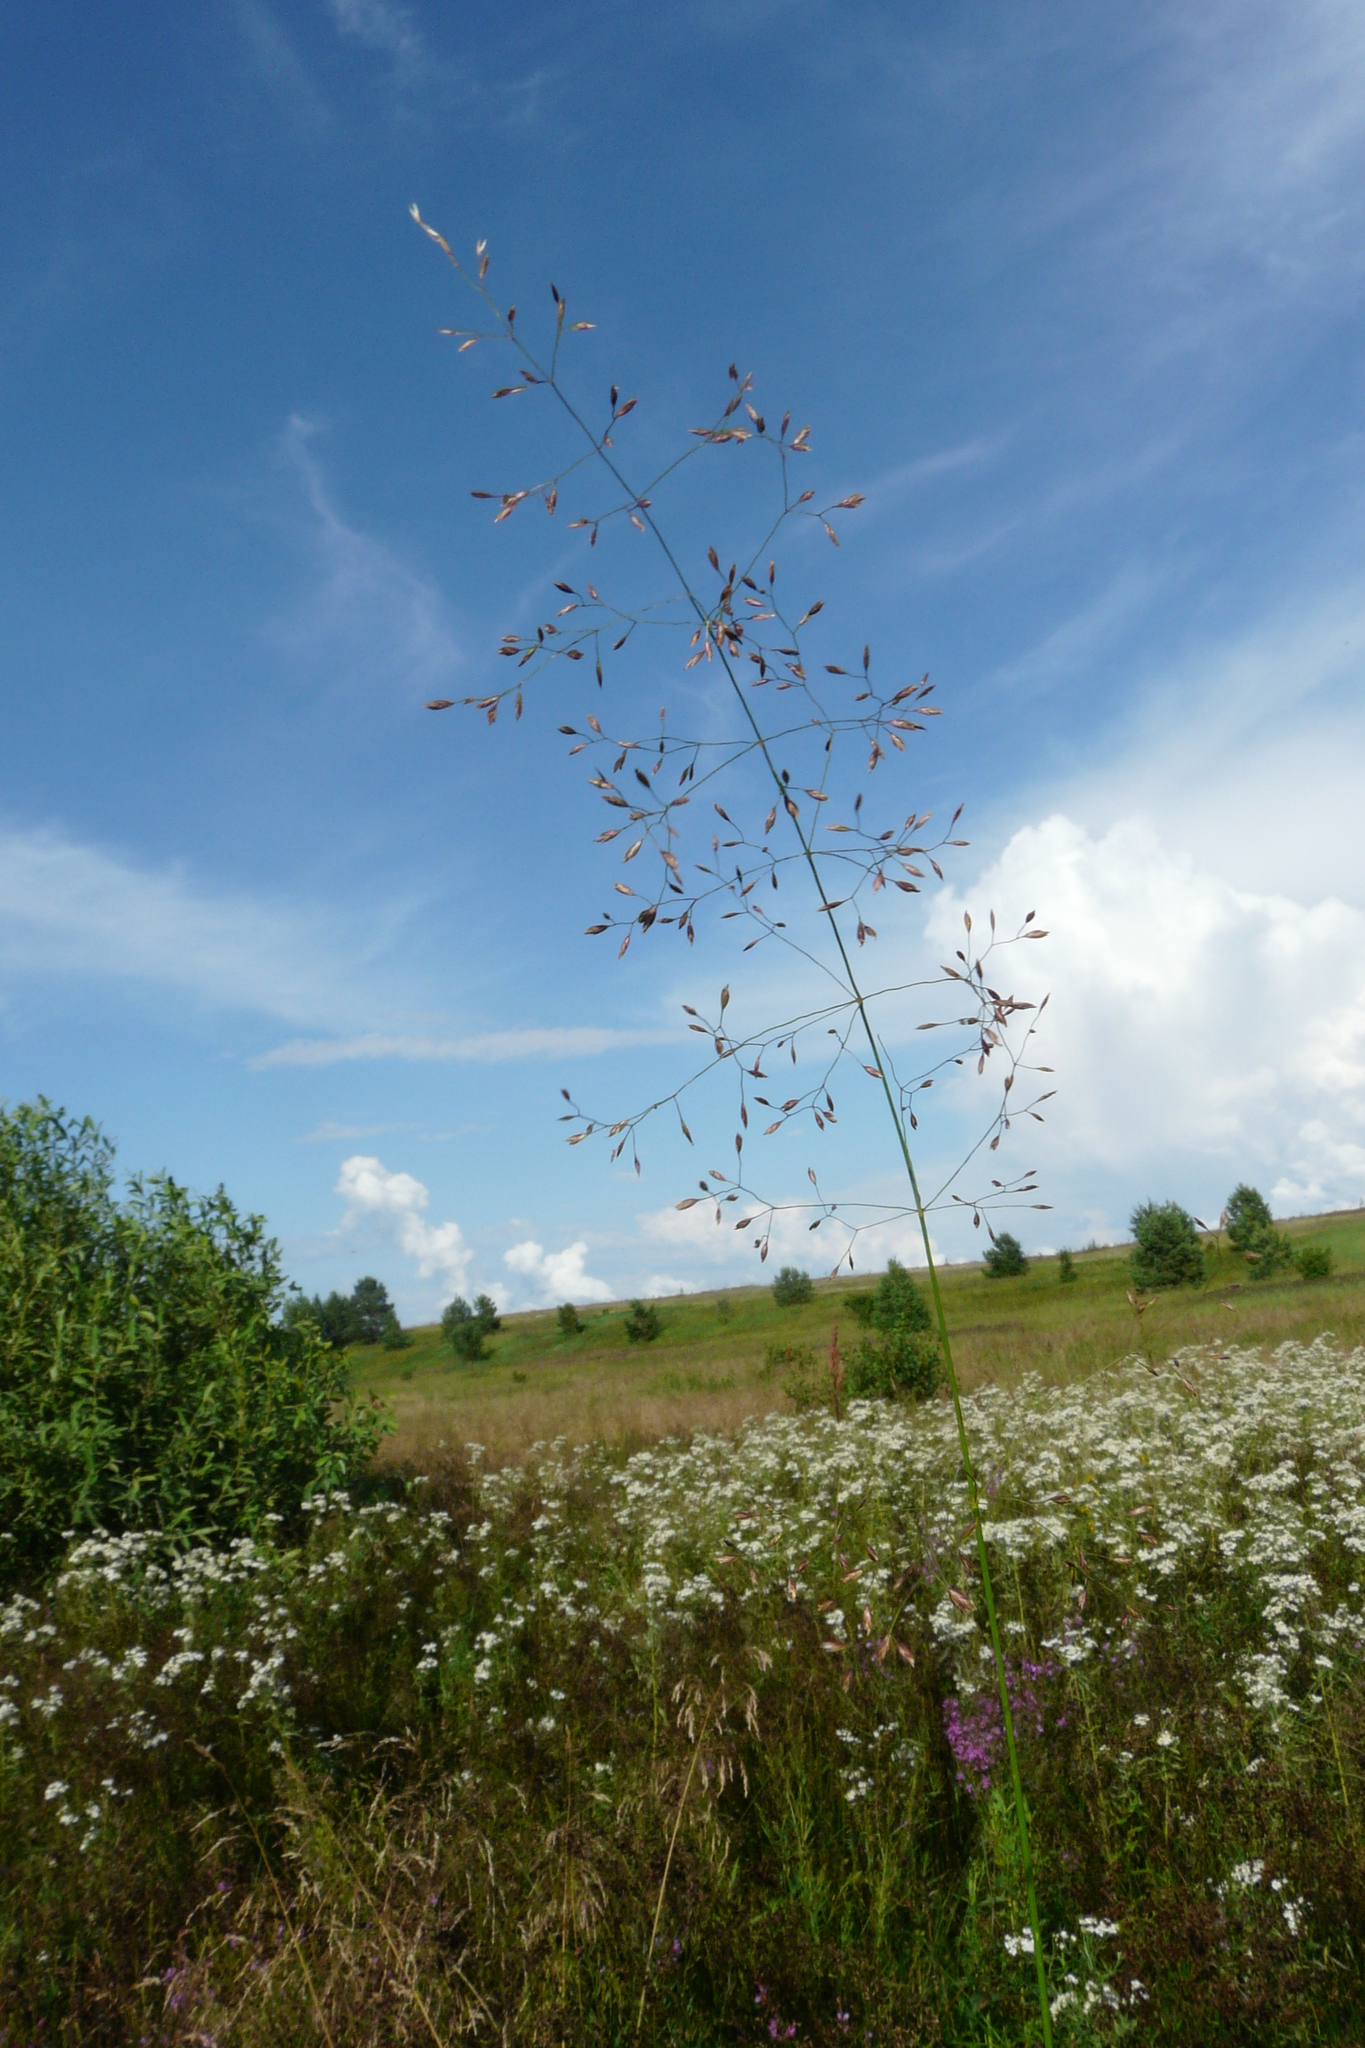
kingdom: Plantae
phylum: Tracheophyta
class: Liliopsida
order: Poales
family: Poaceae
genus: Poa
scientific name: Poa palustris
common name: Swamp meadow-grass
